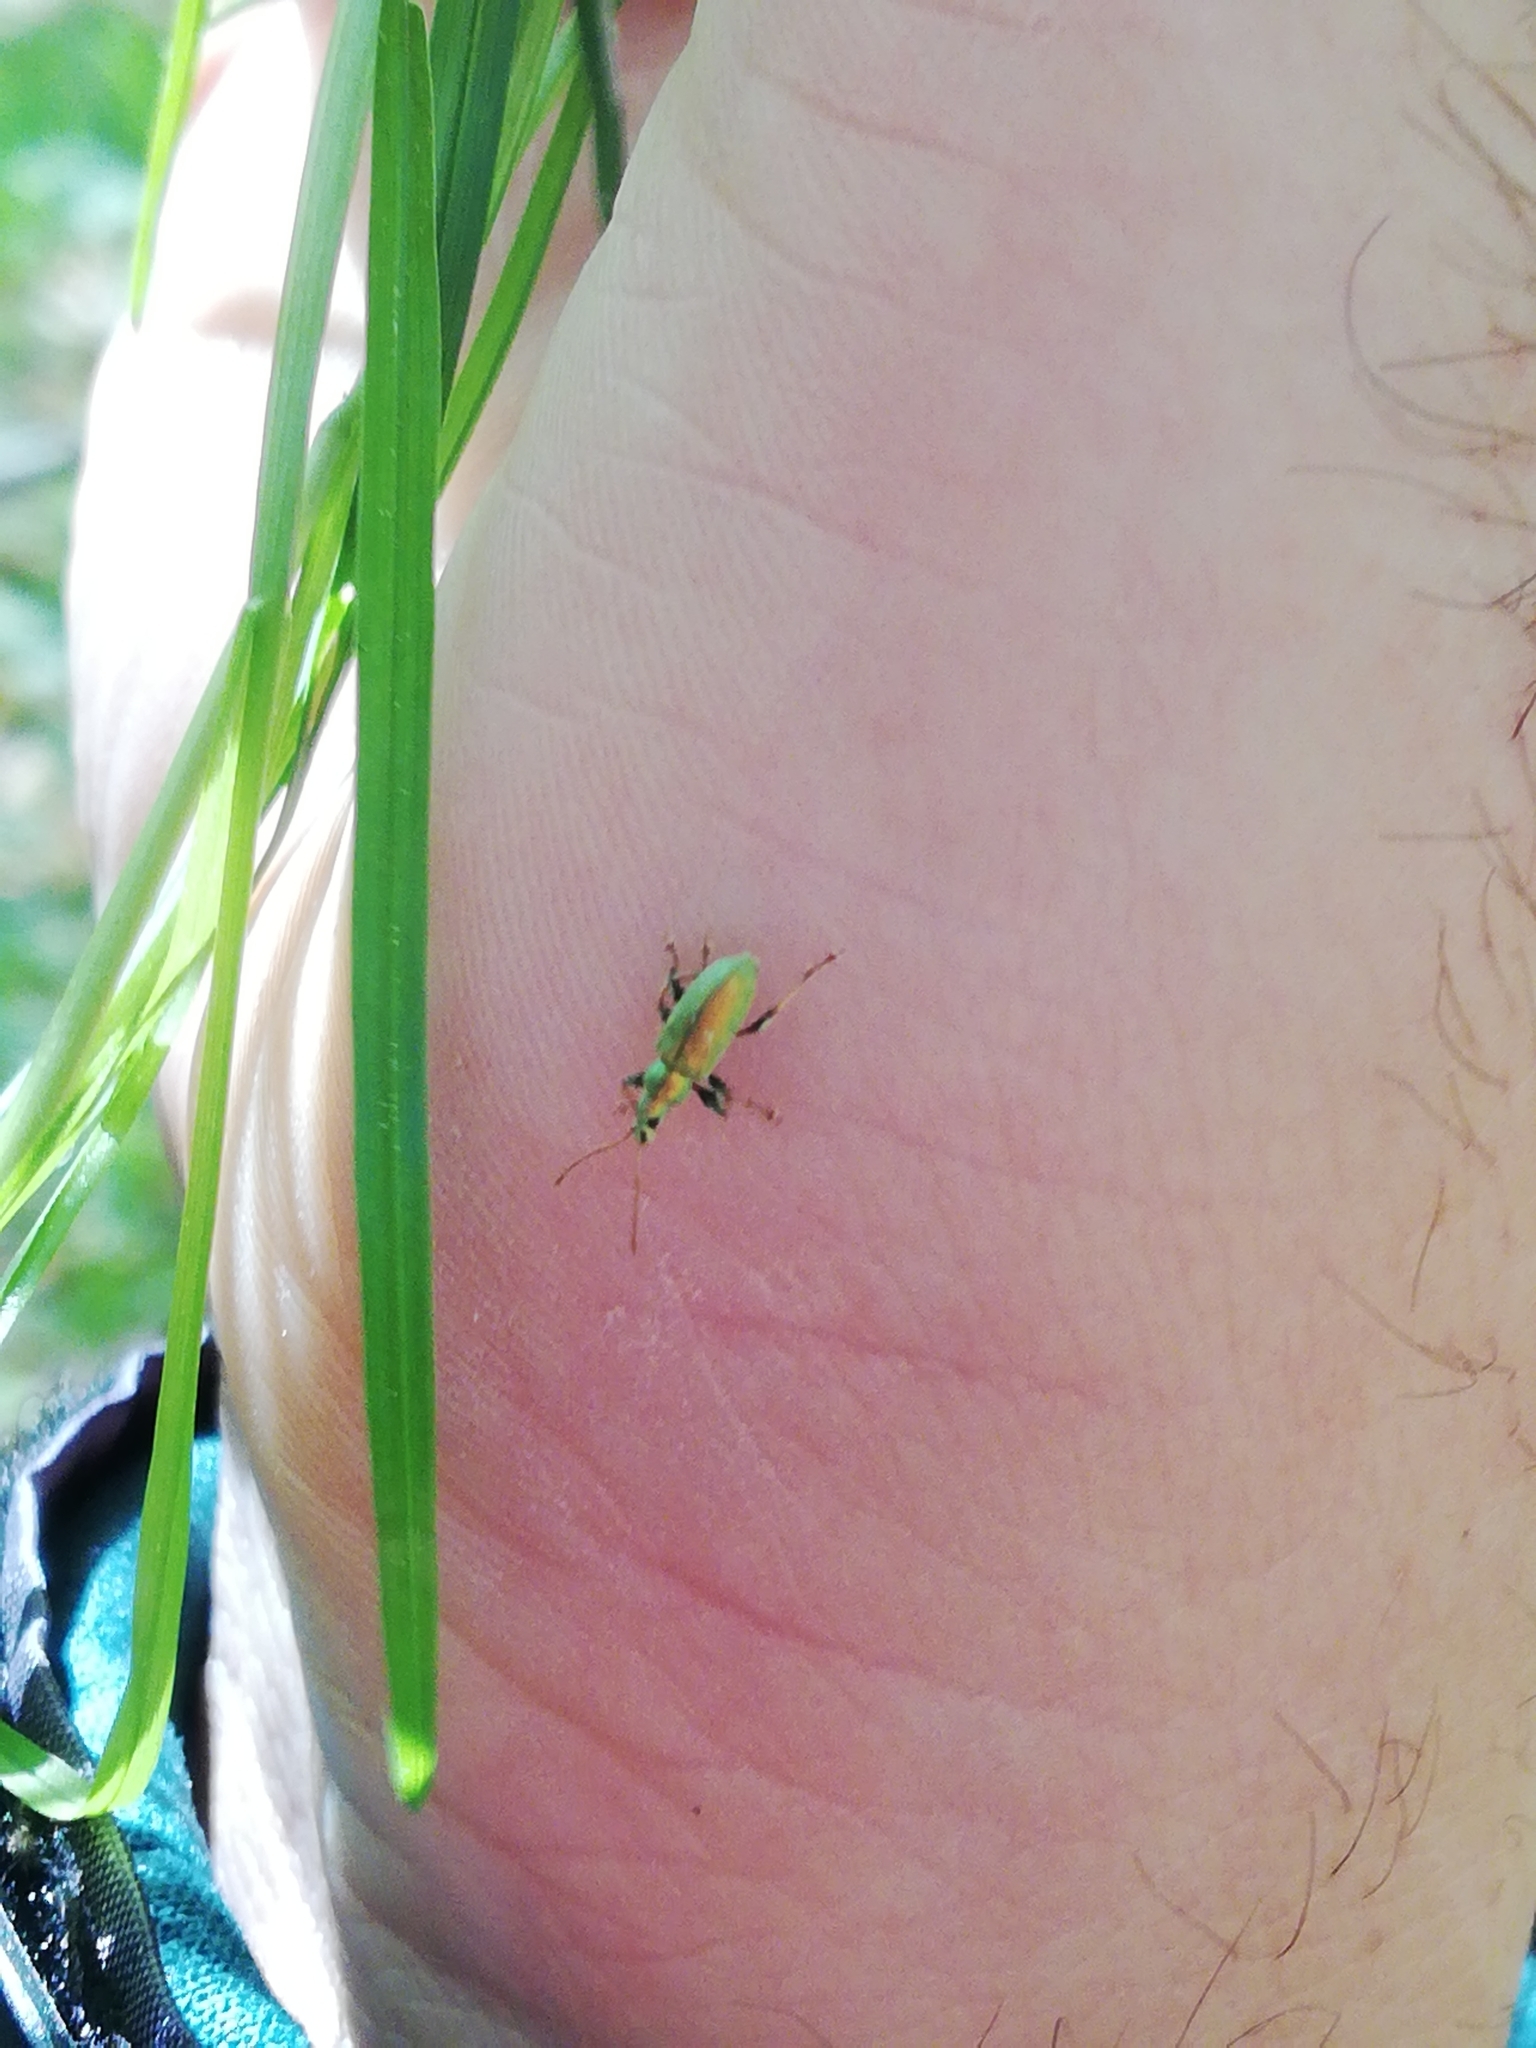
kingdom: Animalia
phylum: Arthropoda
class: Insecta
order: Coleoptera
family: Curculionidae
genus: Phyllobius
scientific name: Phyllobius argentatus
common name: Silver-green leaf weevil
